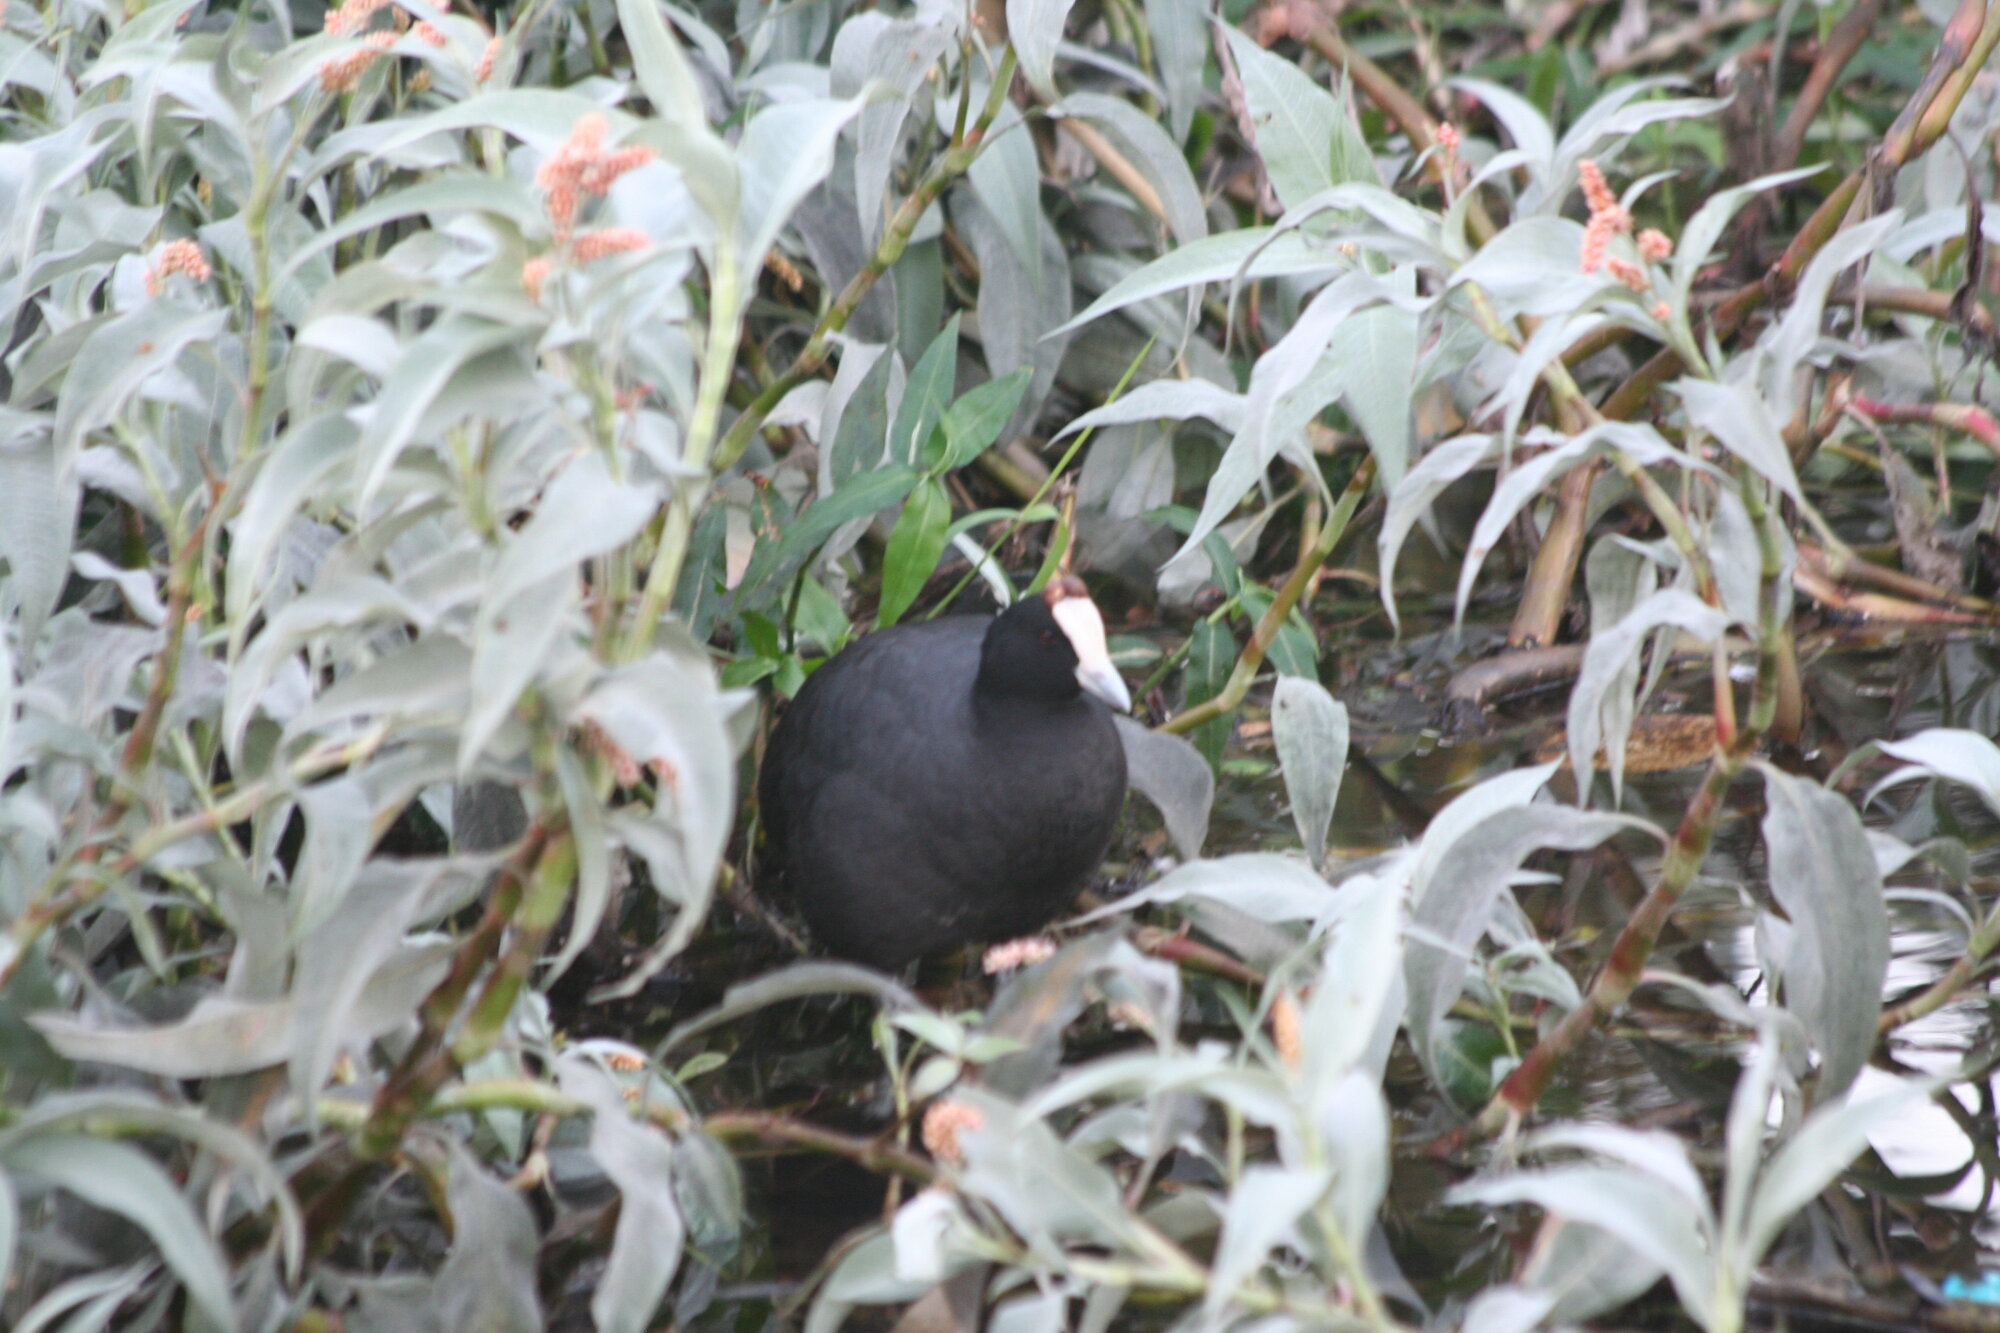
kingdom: Animalia
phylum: Chordata
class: Aves
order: Gruiformes
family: Rallidae
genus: Fulica
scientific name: Fulica cristata
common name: Red-knobbed coot
